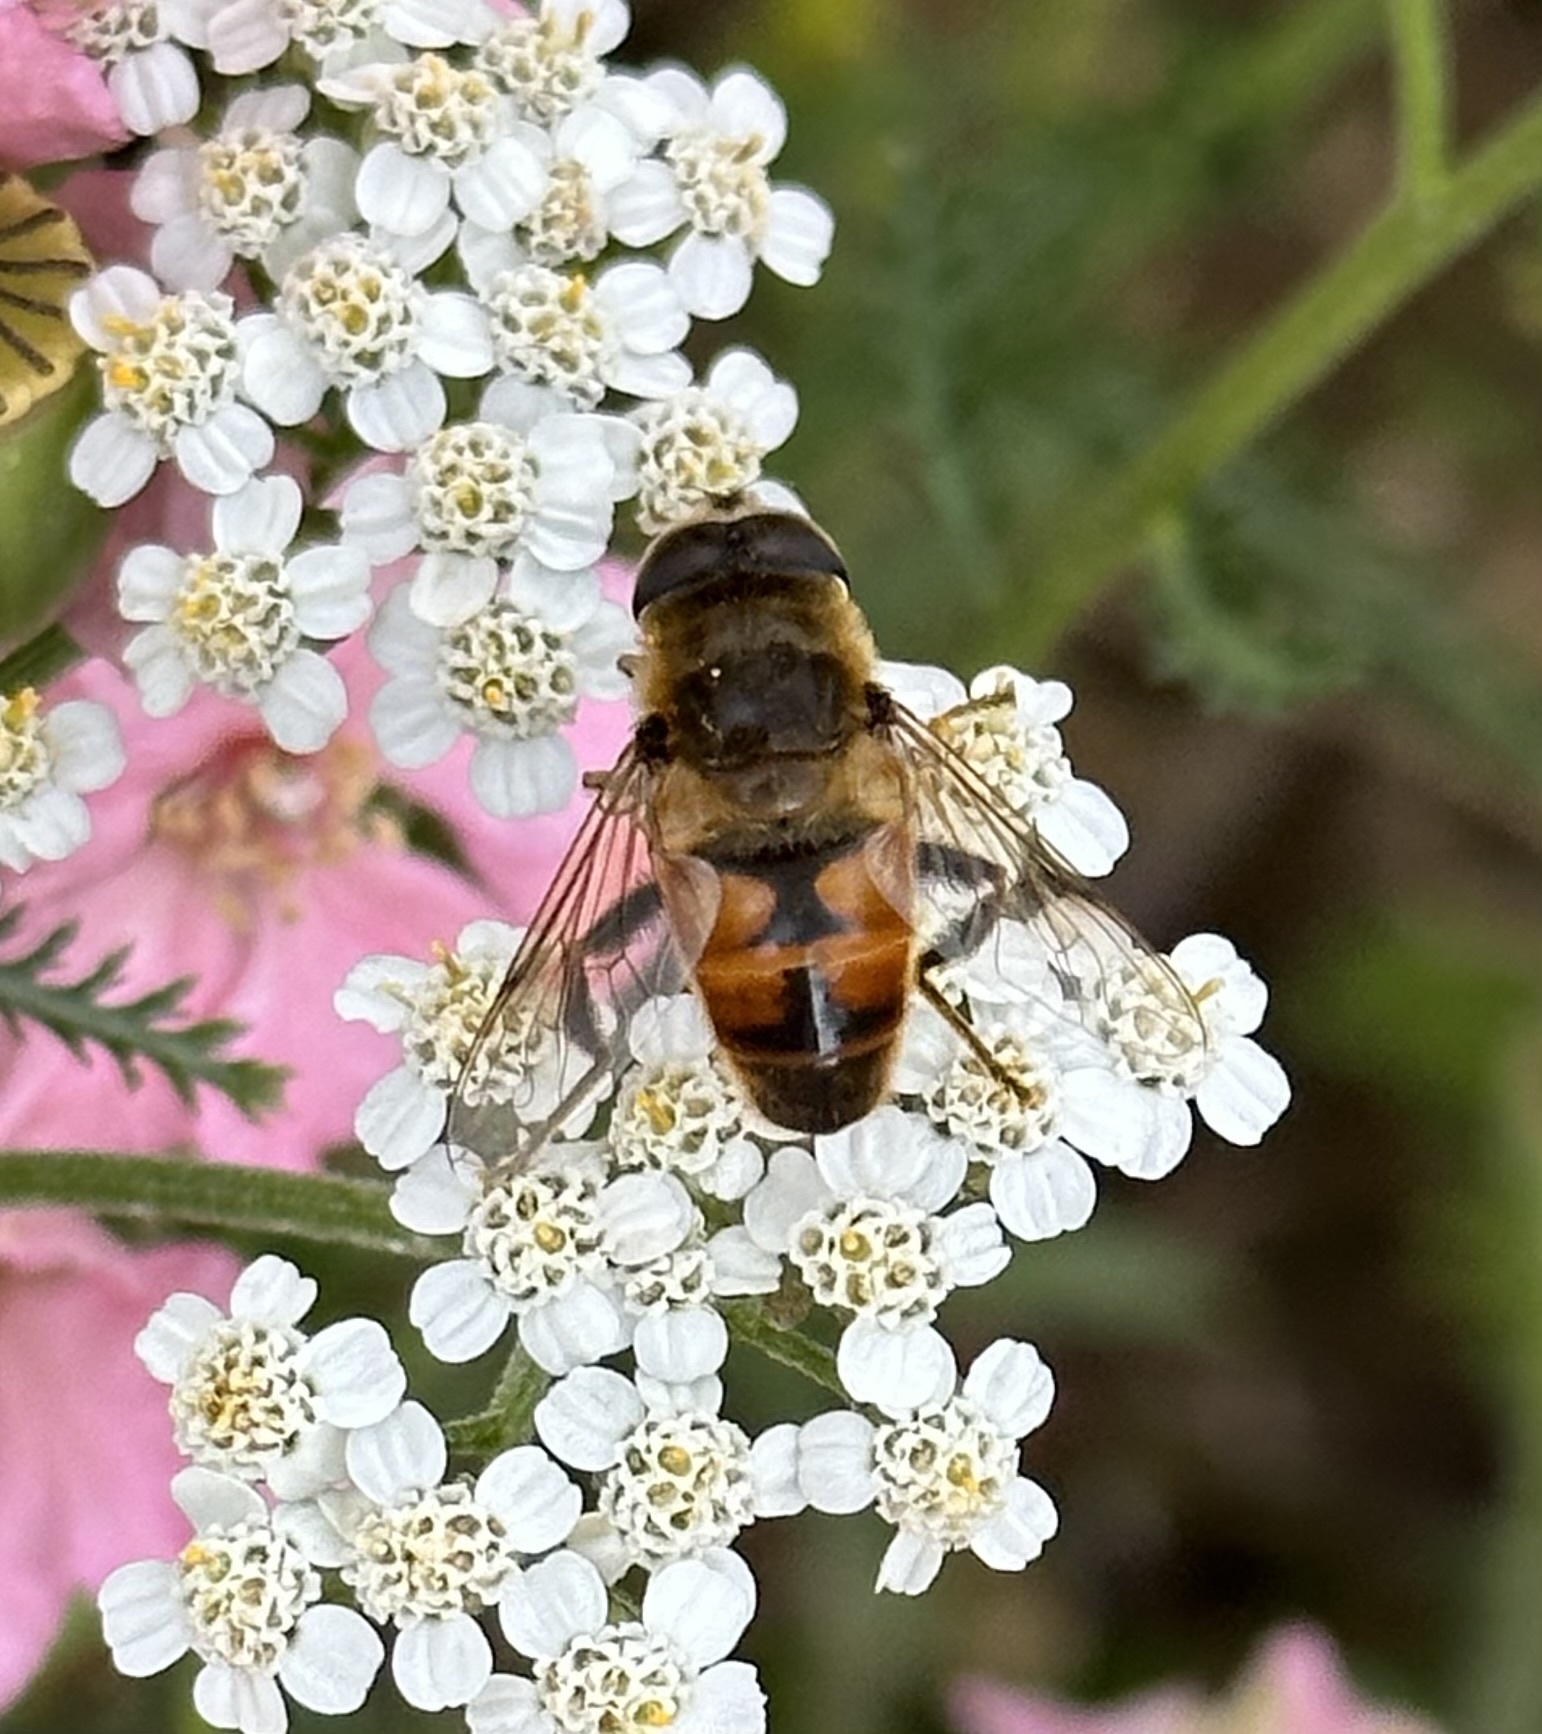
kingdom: Animalia
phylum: Arthropoda
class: Insecta
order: Diptera
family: Syrphidae
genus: Eristalis
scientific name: Eristalis tenax
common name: Drone fly
